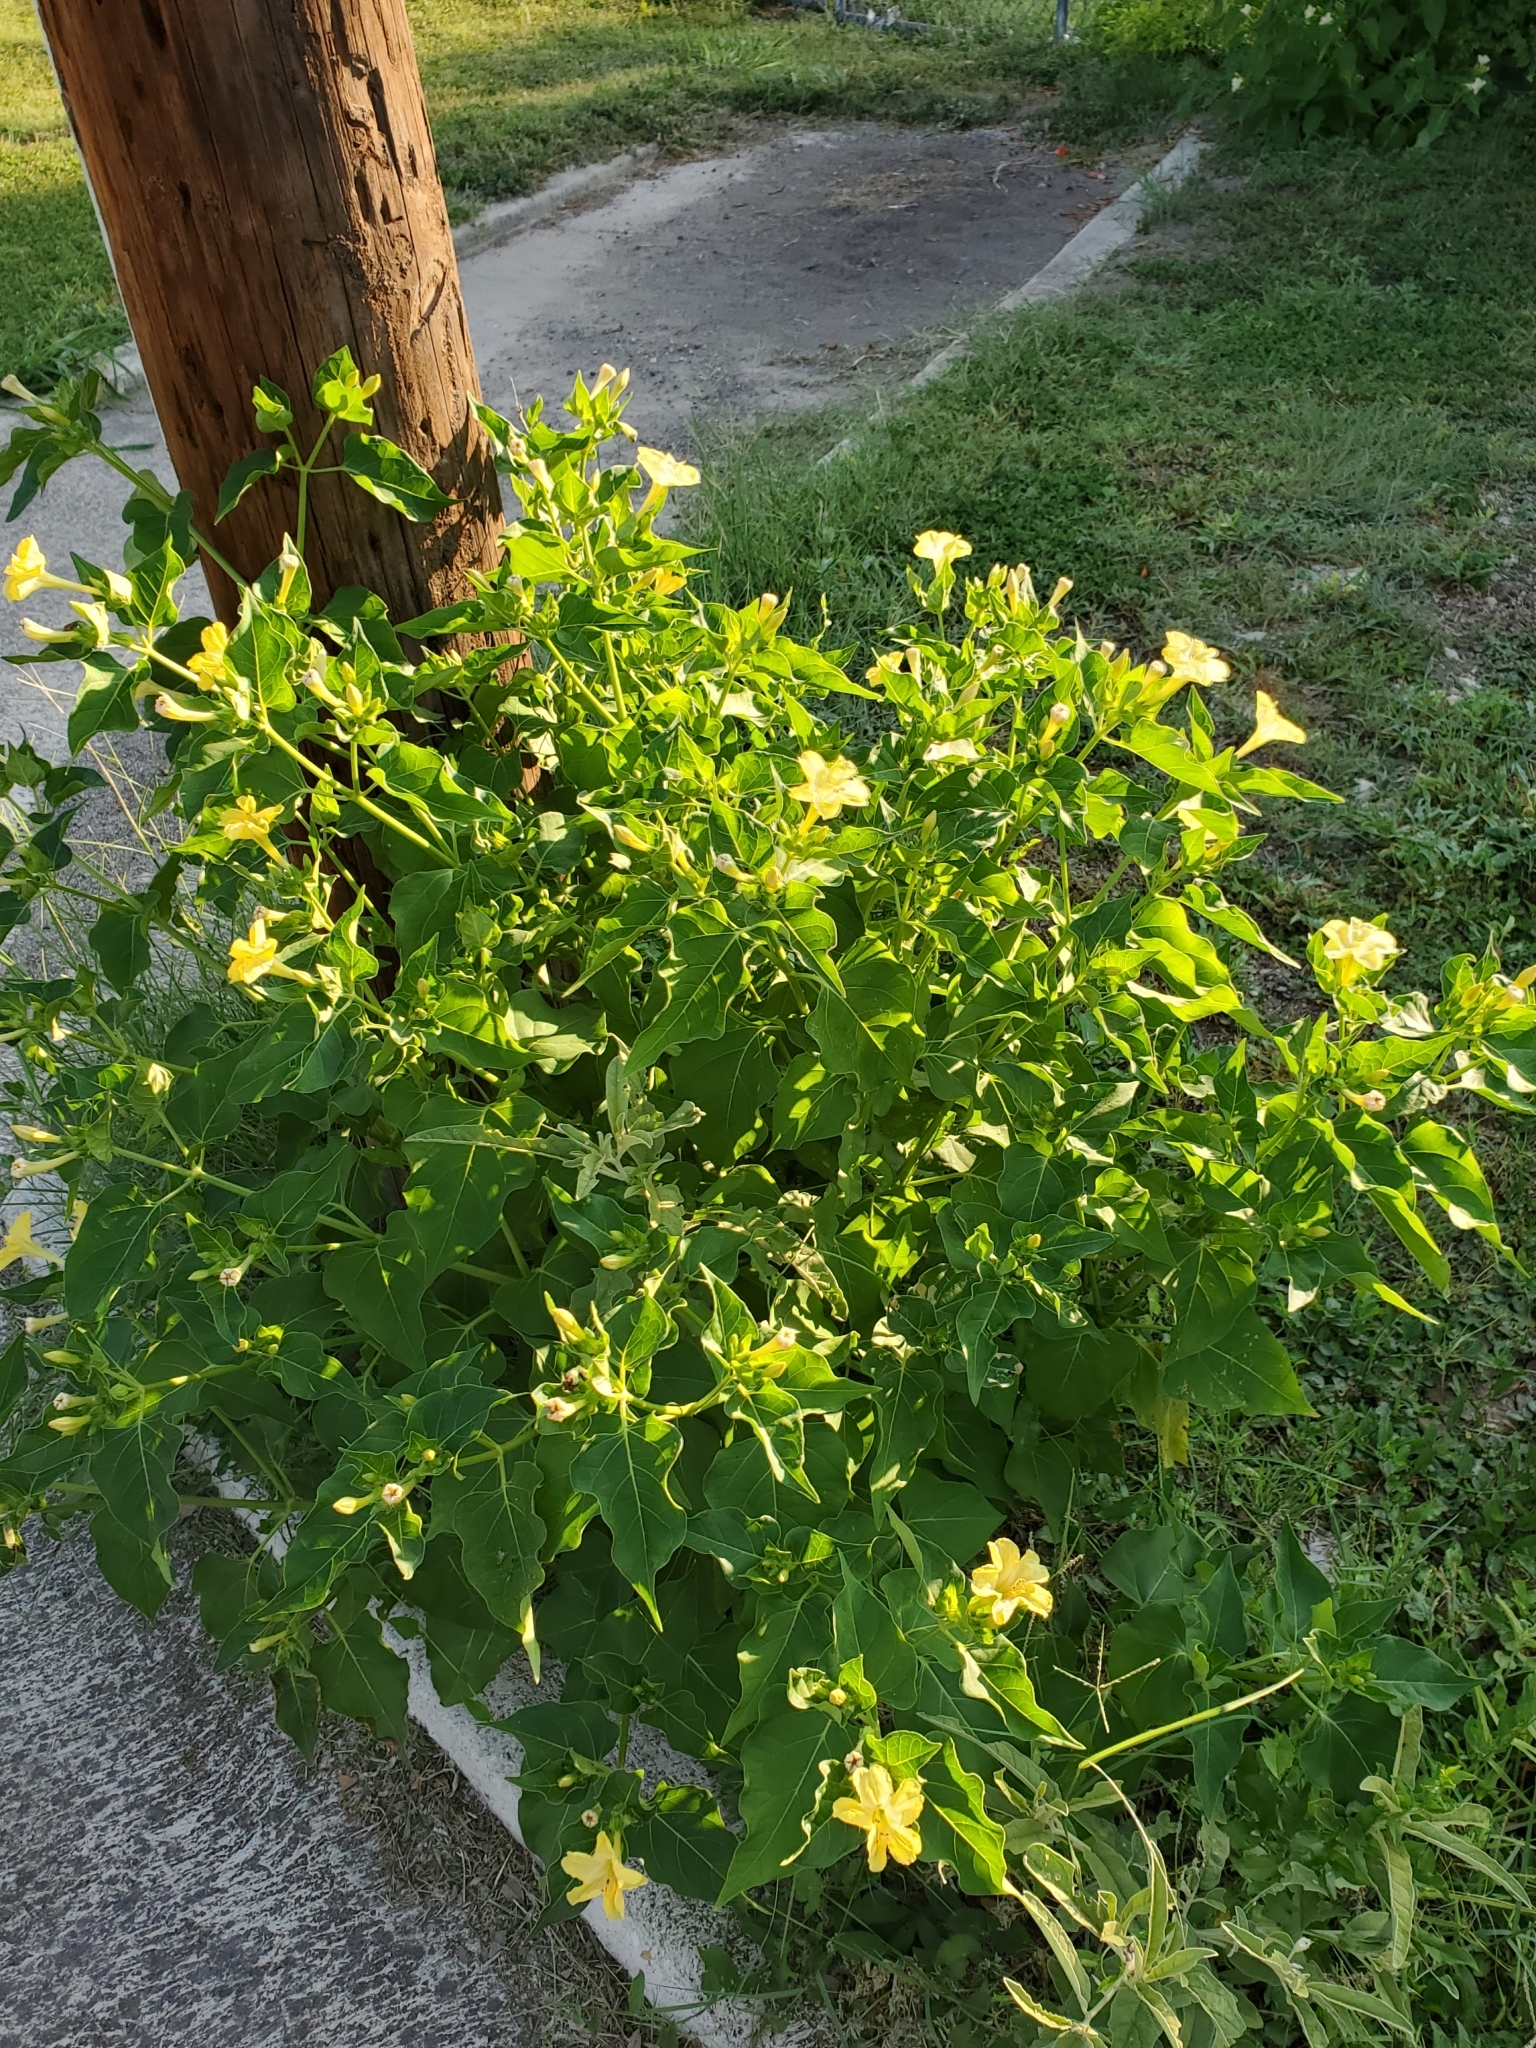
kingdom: Plantae
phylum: Tracheophyta
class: Magnoliopsida
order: Caryophyllales
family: Nyctaginaceae
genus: Mirabilis
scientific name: Mirabilis jalapa
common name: Marvel-of-peru
